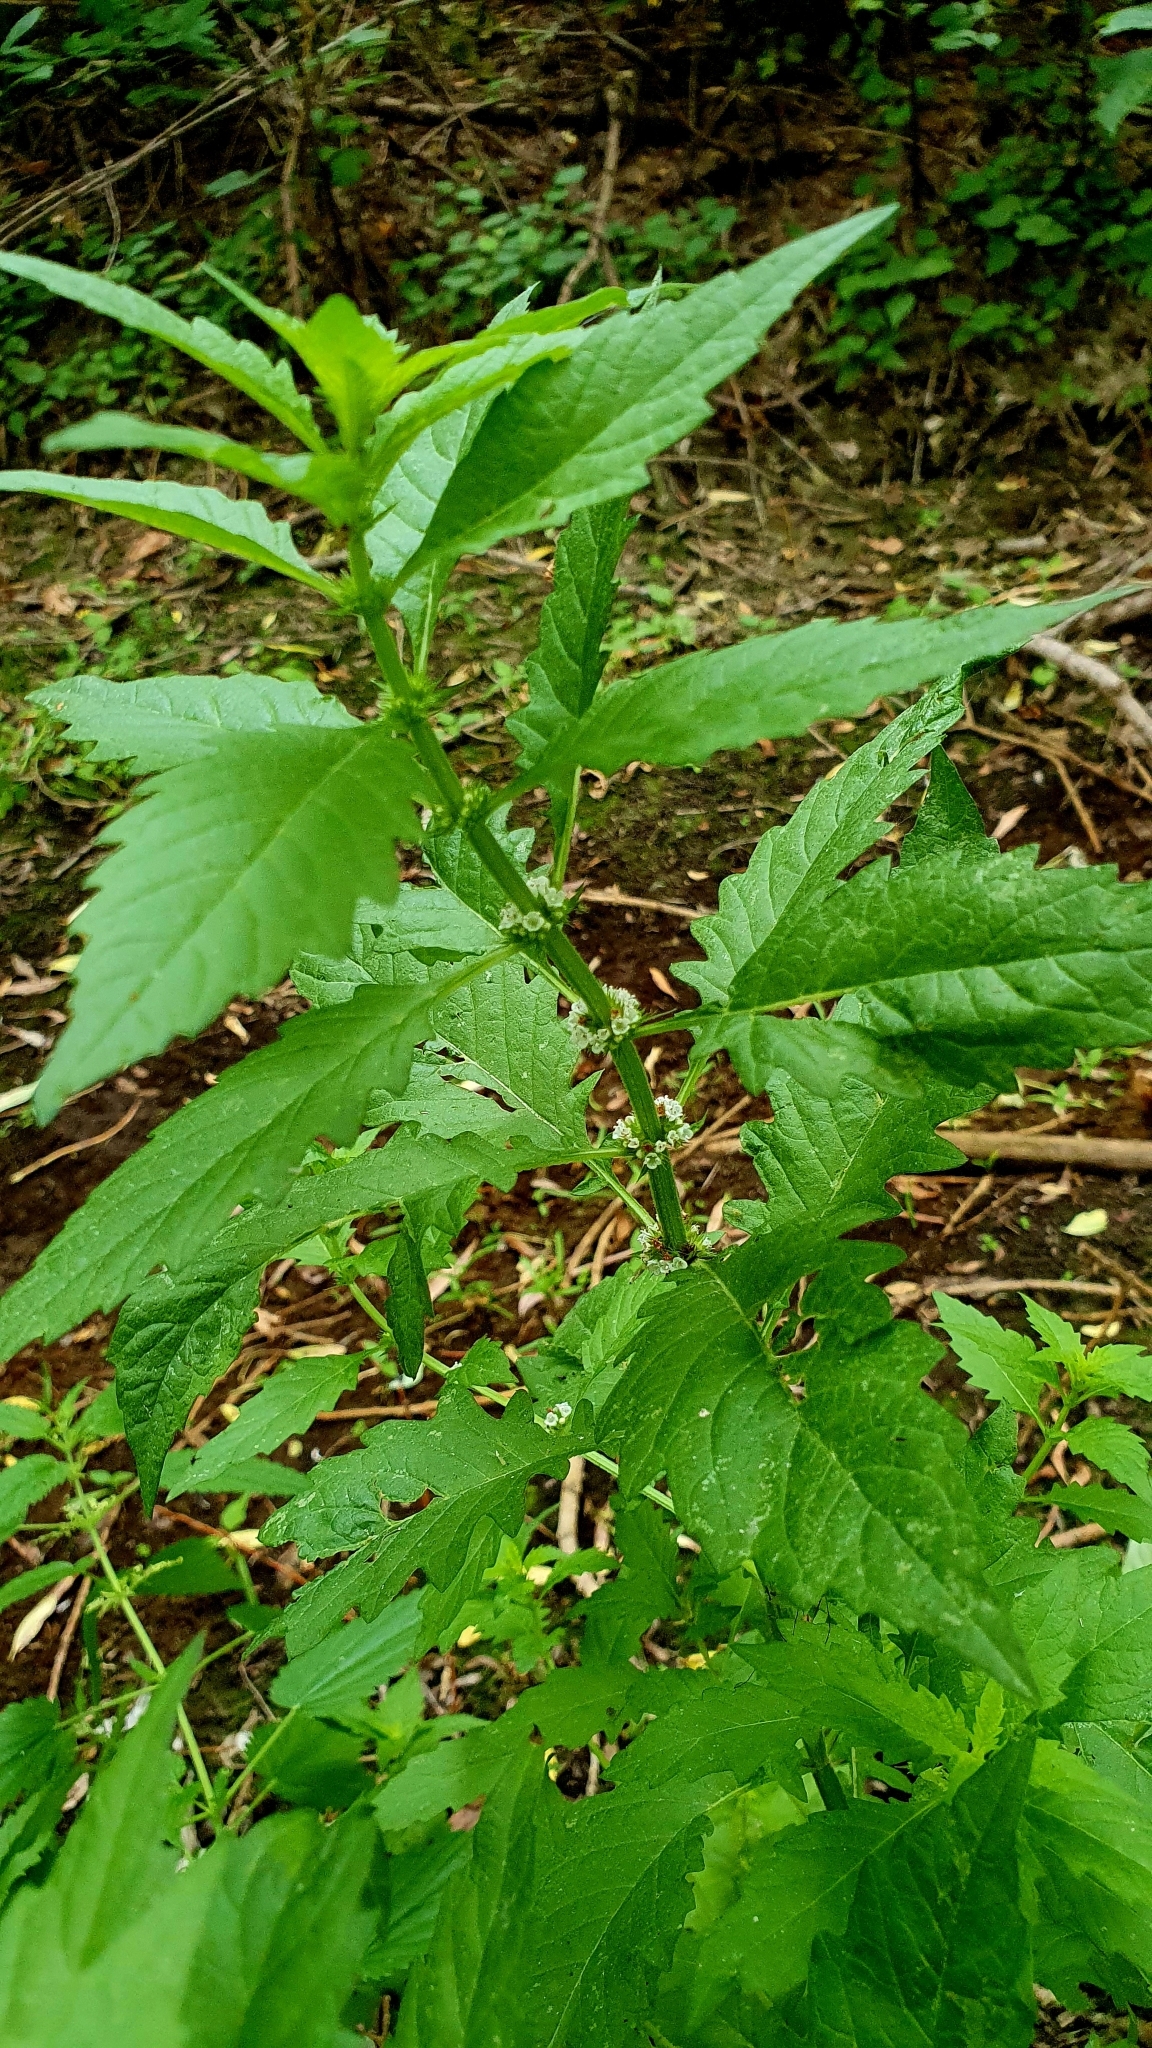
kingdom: Plantae
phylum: Tracheophyta
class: Magnoliopsida
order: Lamiales
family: Lamiaceae
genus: Lycopus
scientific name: Lycopus europaeus
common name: European bugleweed
